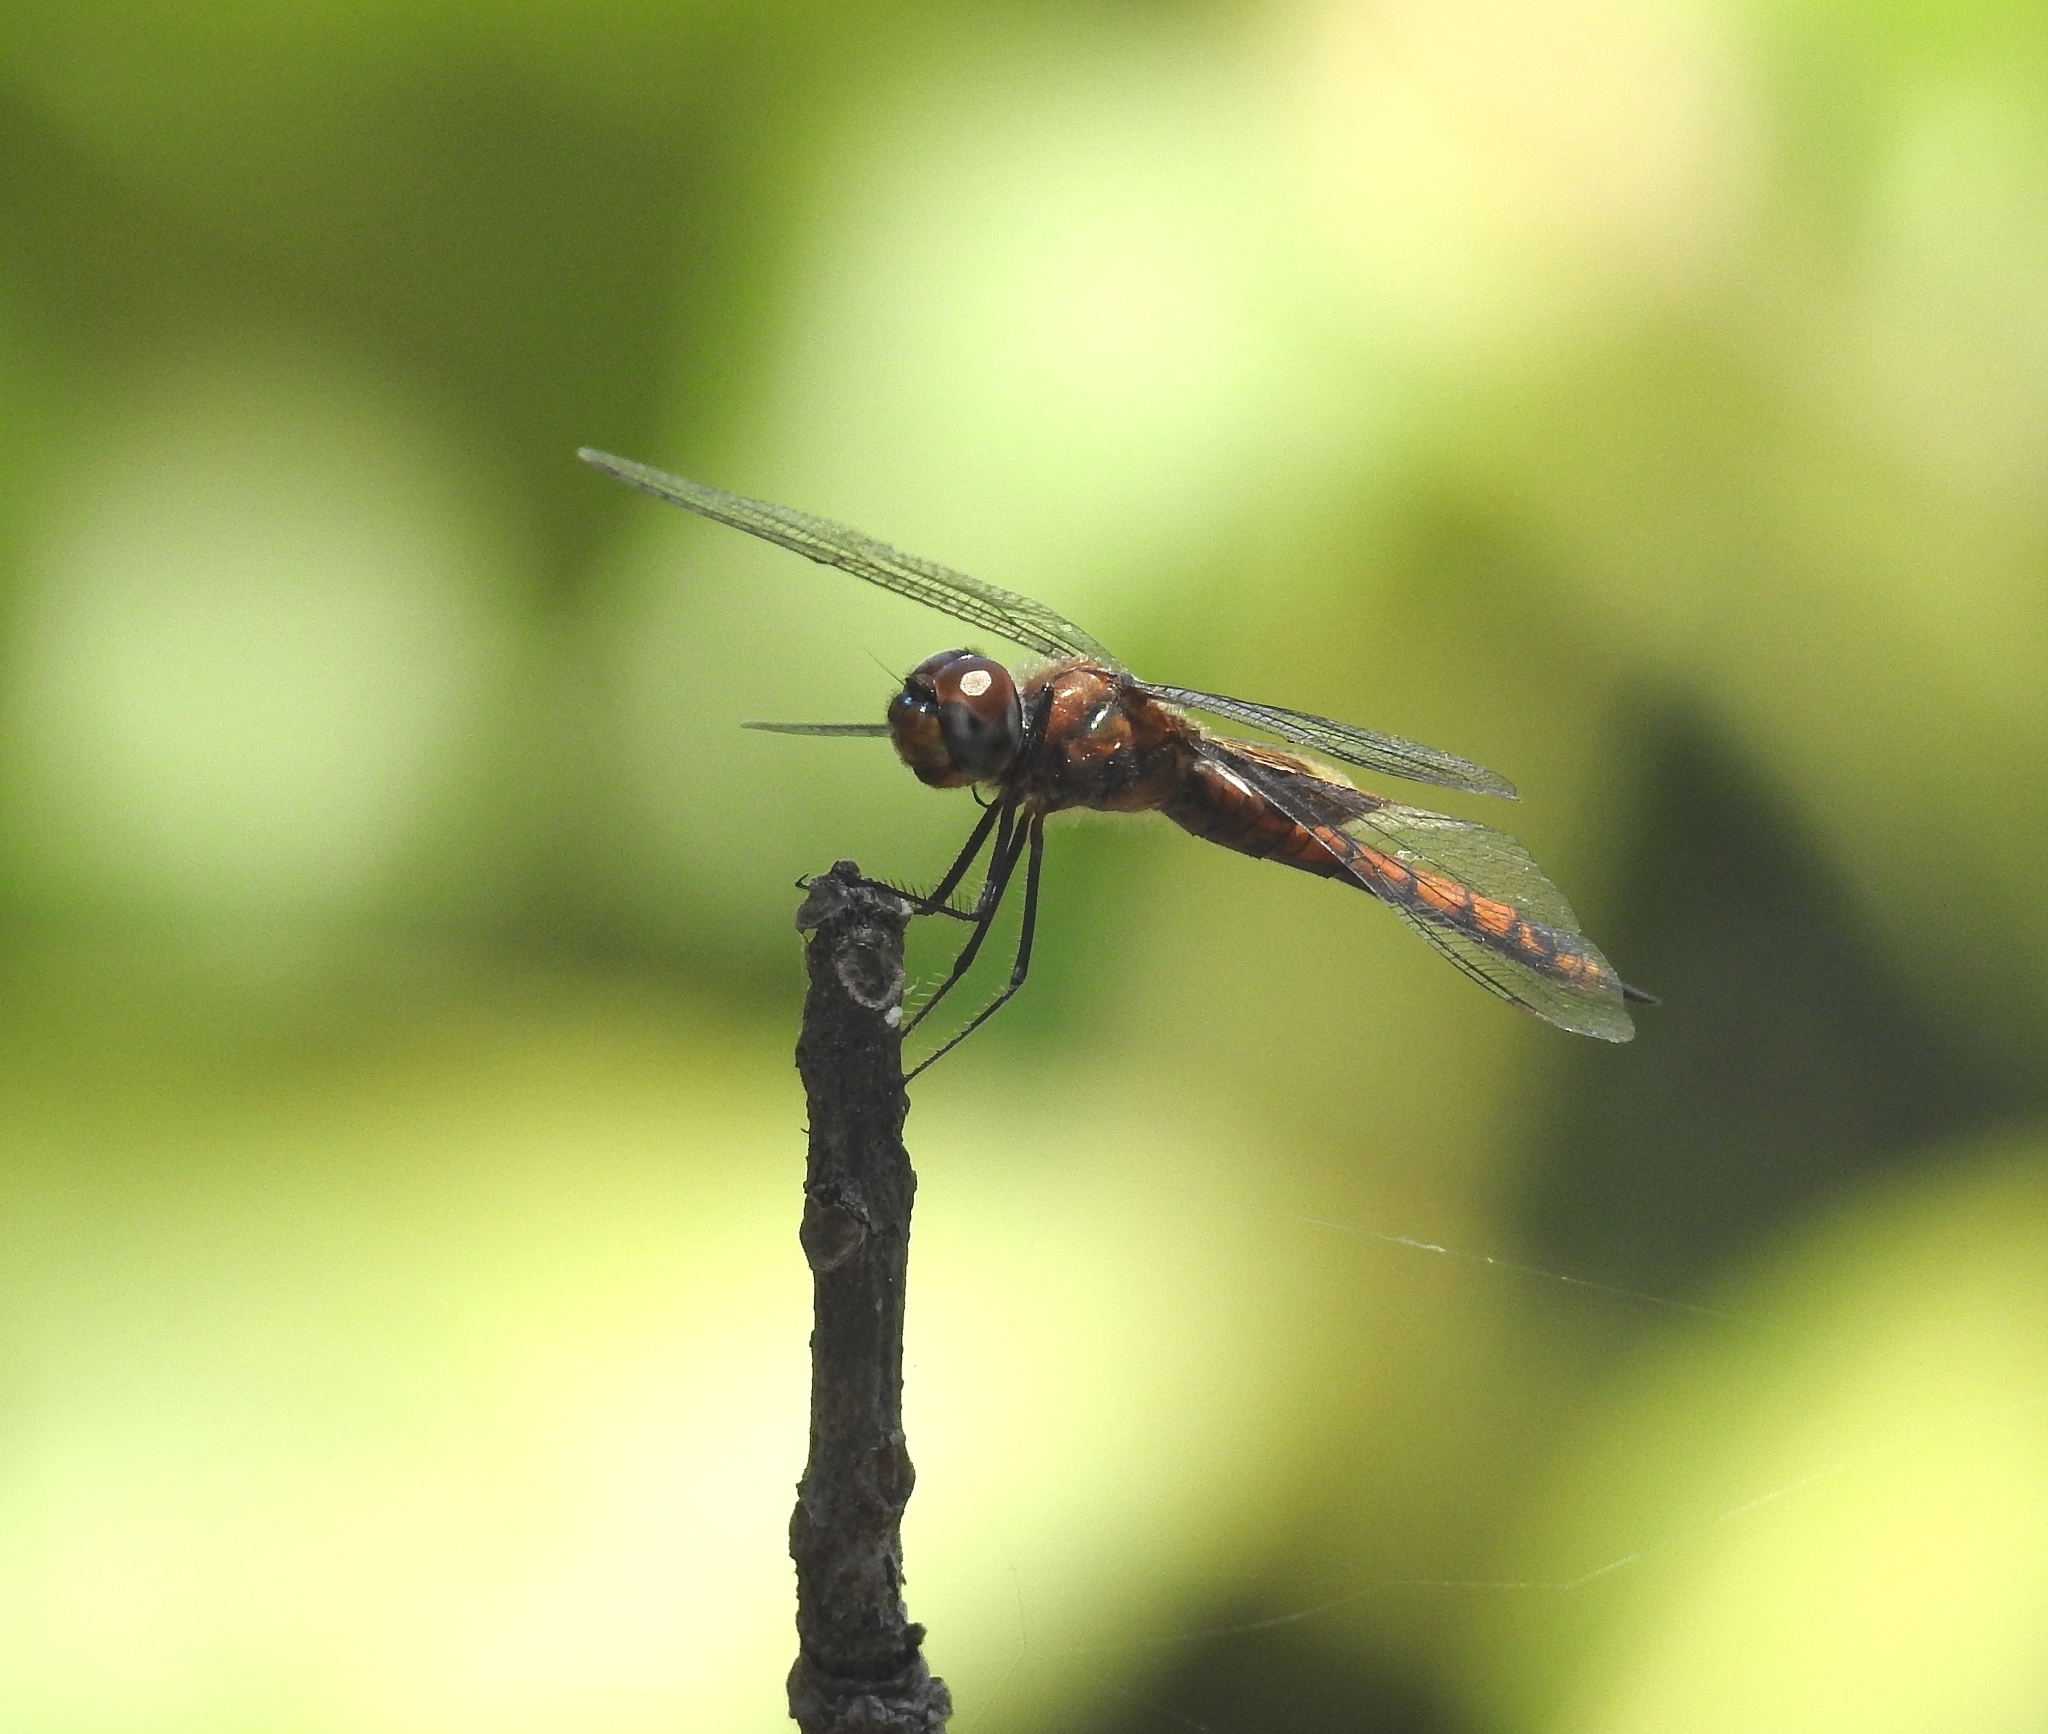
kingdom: Animalia
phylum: Arthropoda
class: Insecta
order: Odonata
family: Libellulidae
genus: Tramea
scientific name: Tramea limbata
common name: Ferruginous glider
